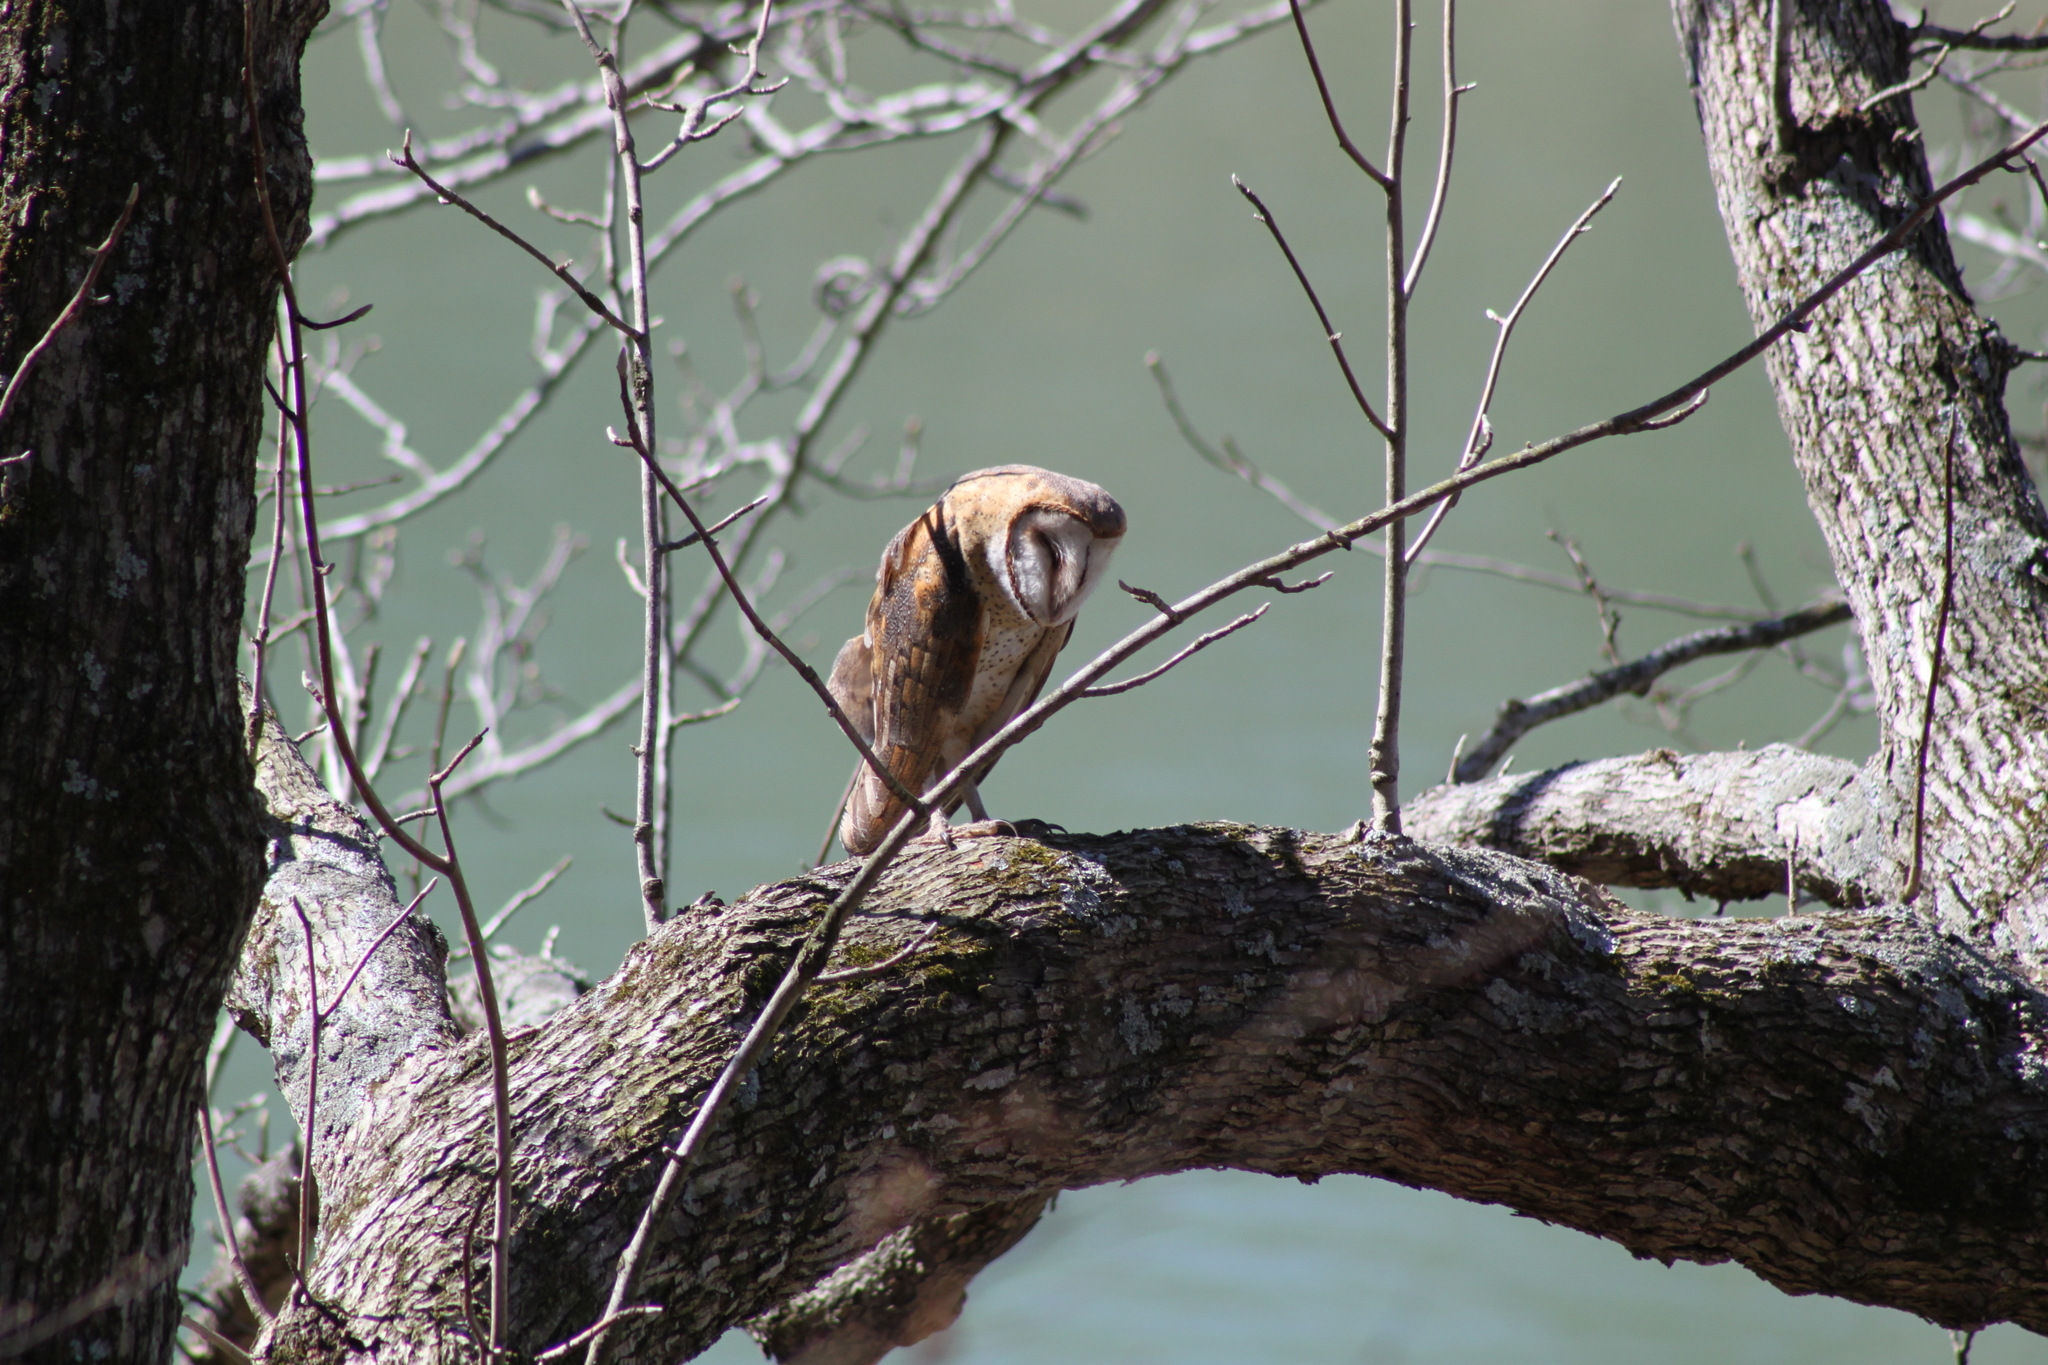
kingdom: Animalia
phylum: Chordata
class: Aves
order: Strigiformes
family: Tytonidae
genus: Tyto
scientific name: Tyto alba
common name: Barn owl
